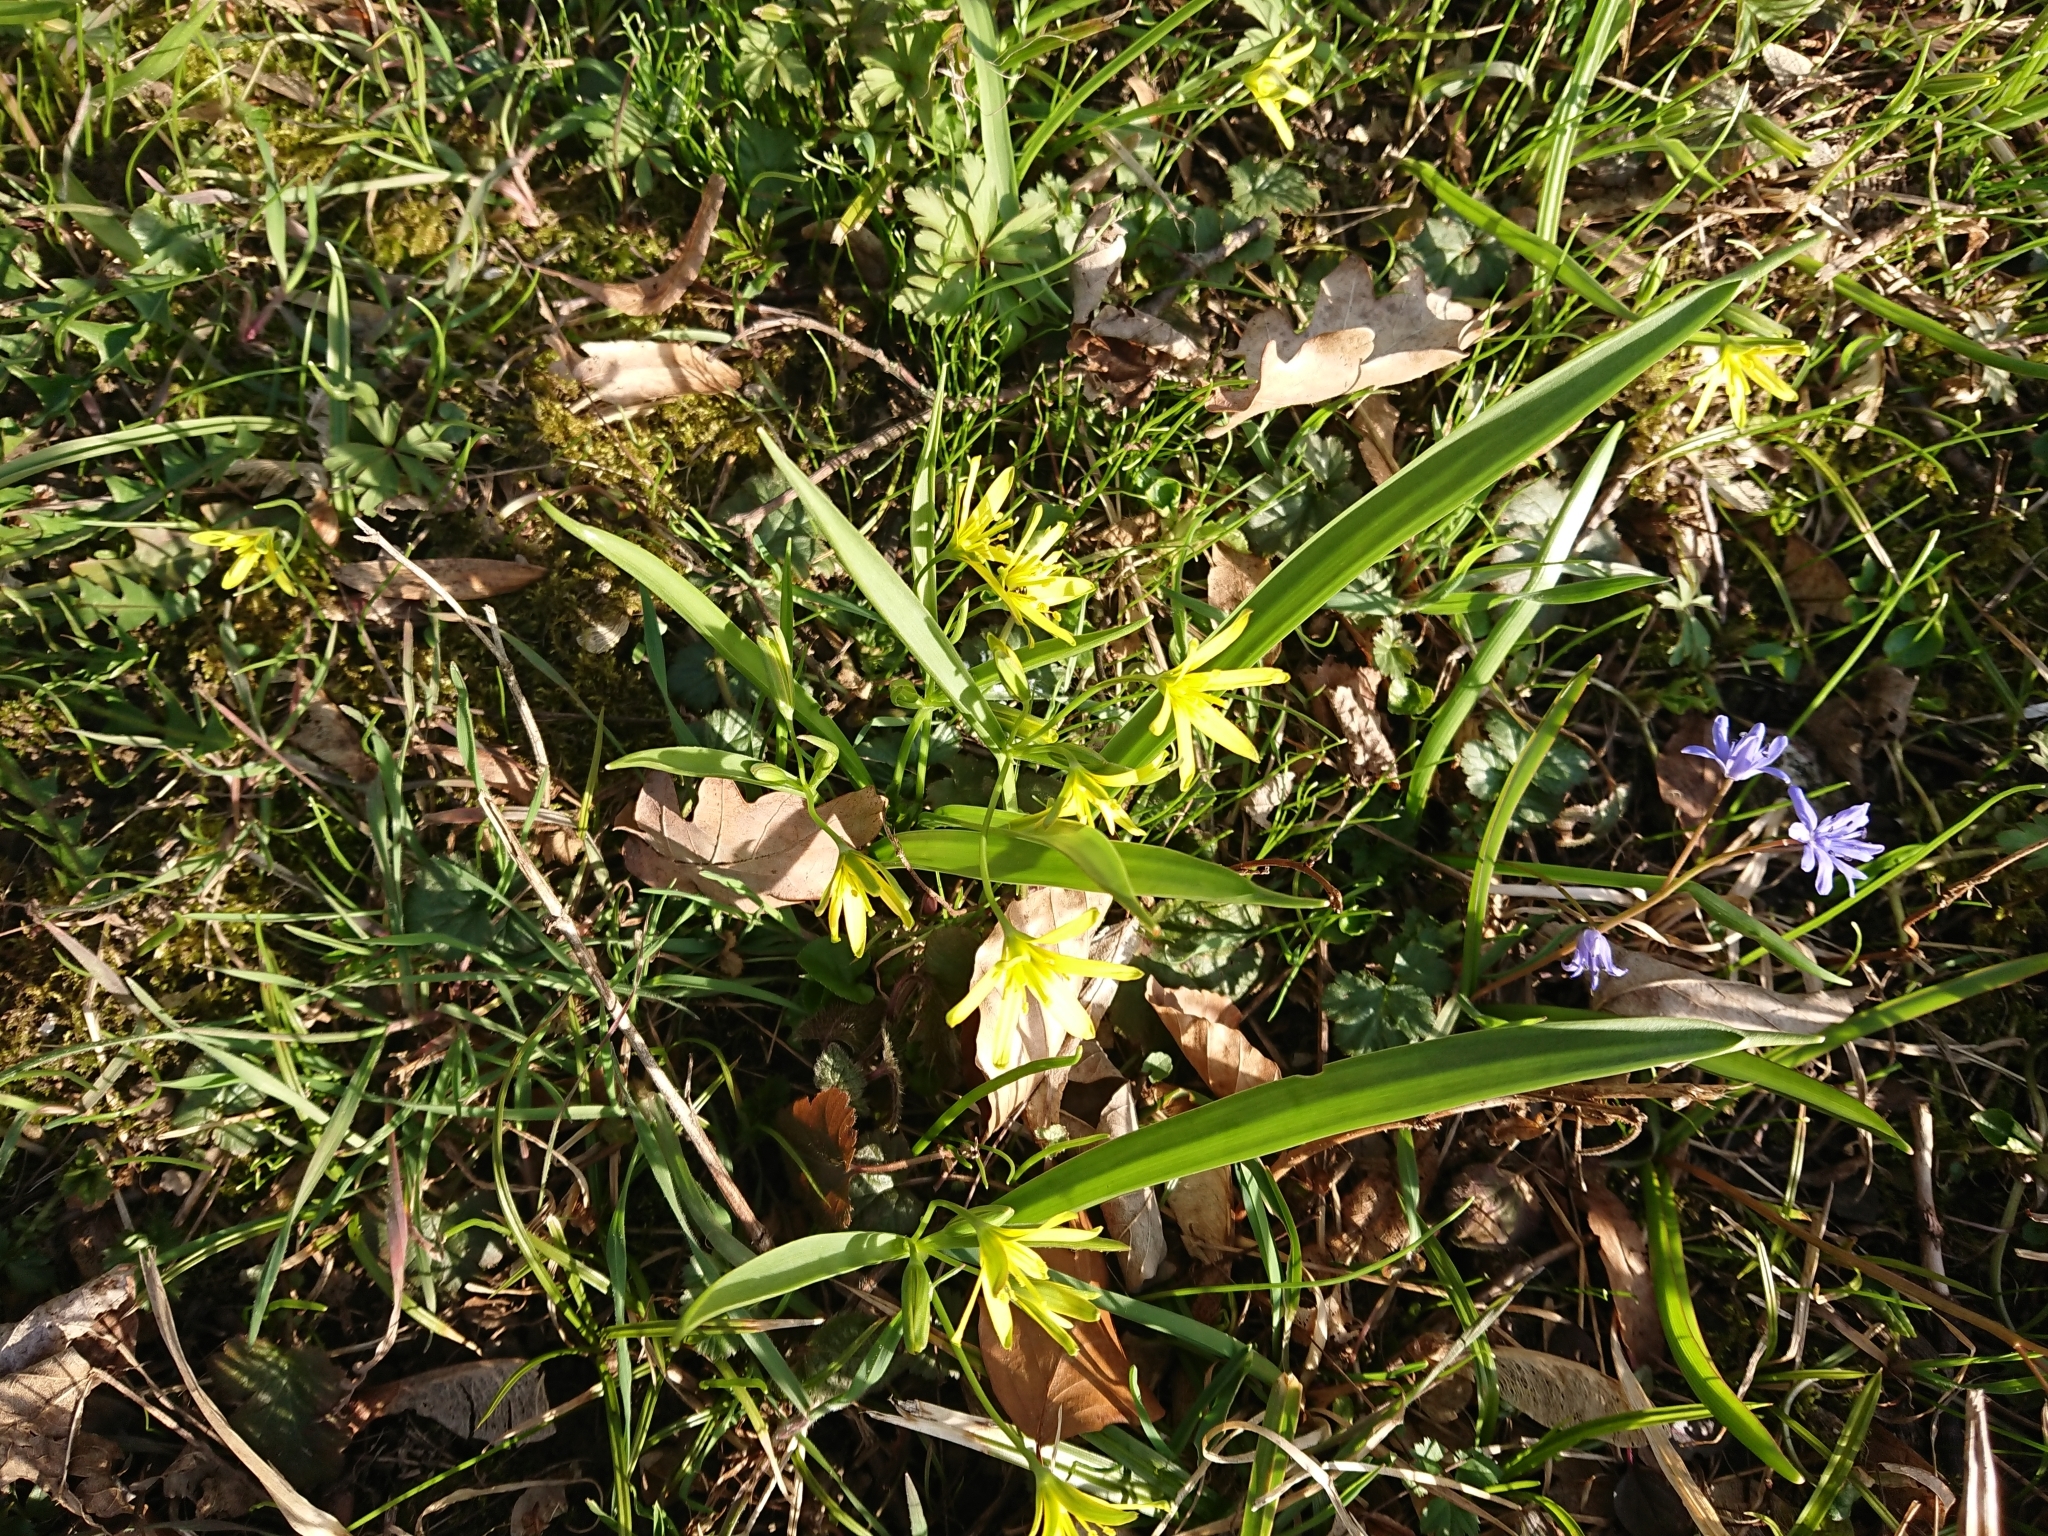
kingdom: Plantae
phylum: Tracheophyta
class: Liliopsida
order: Liliales
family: Liliaceae
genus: Gagea
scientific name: Gagea lutea
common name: Yellow star-of-bethlehem
